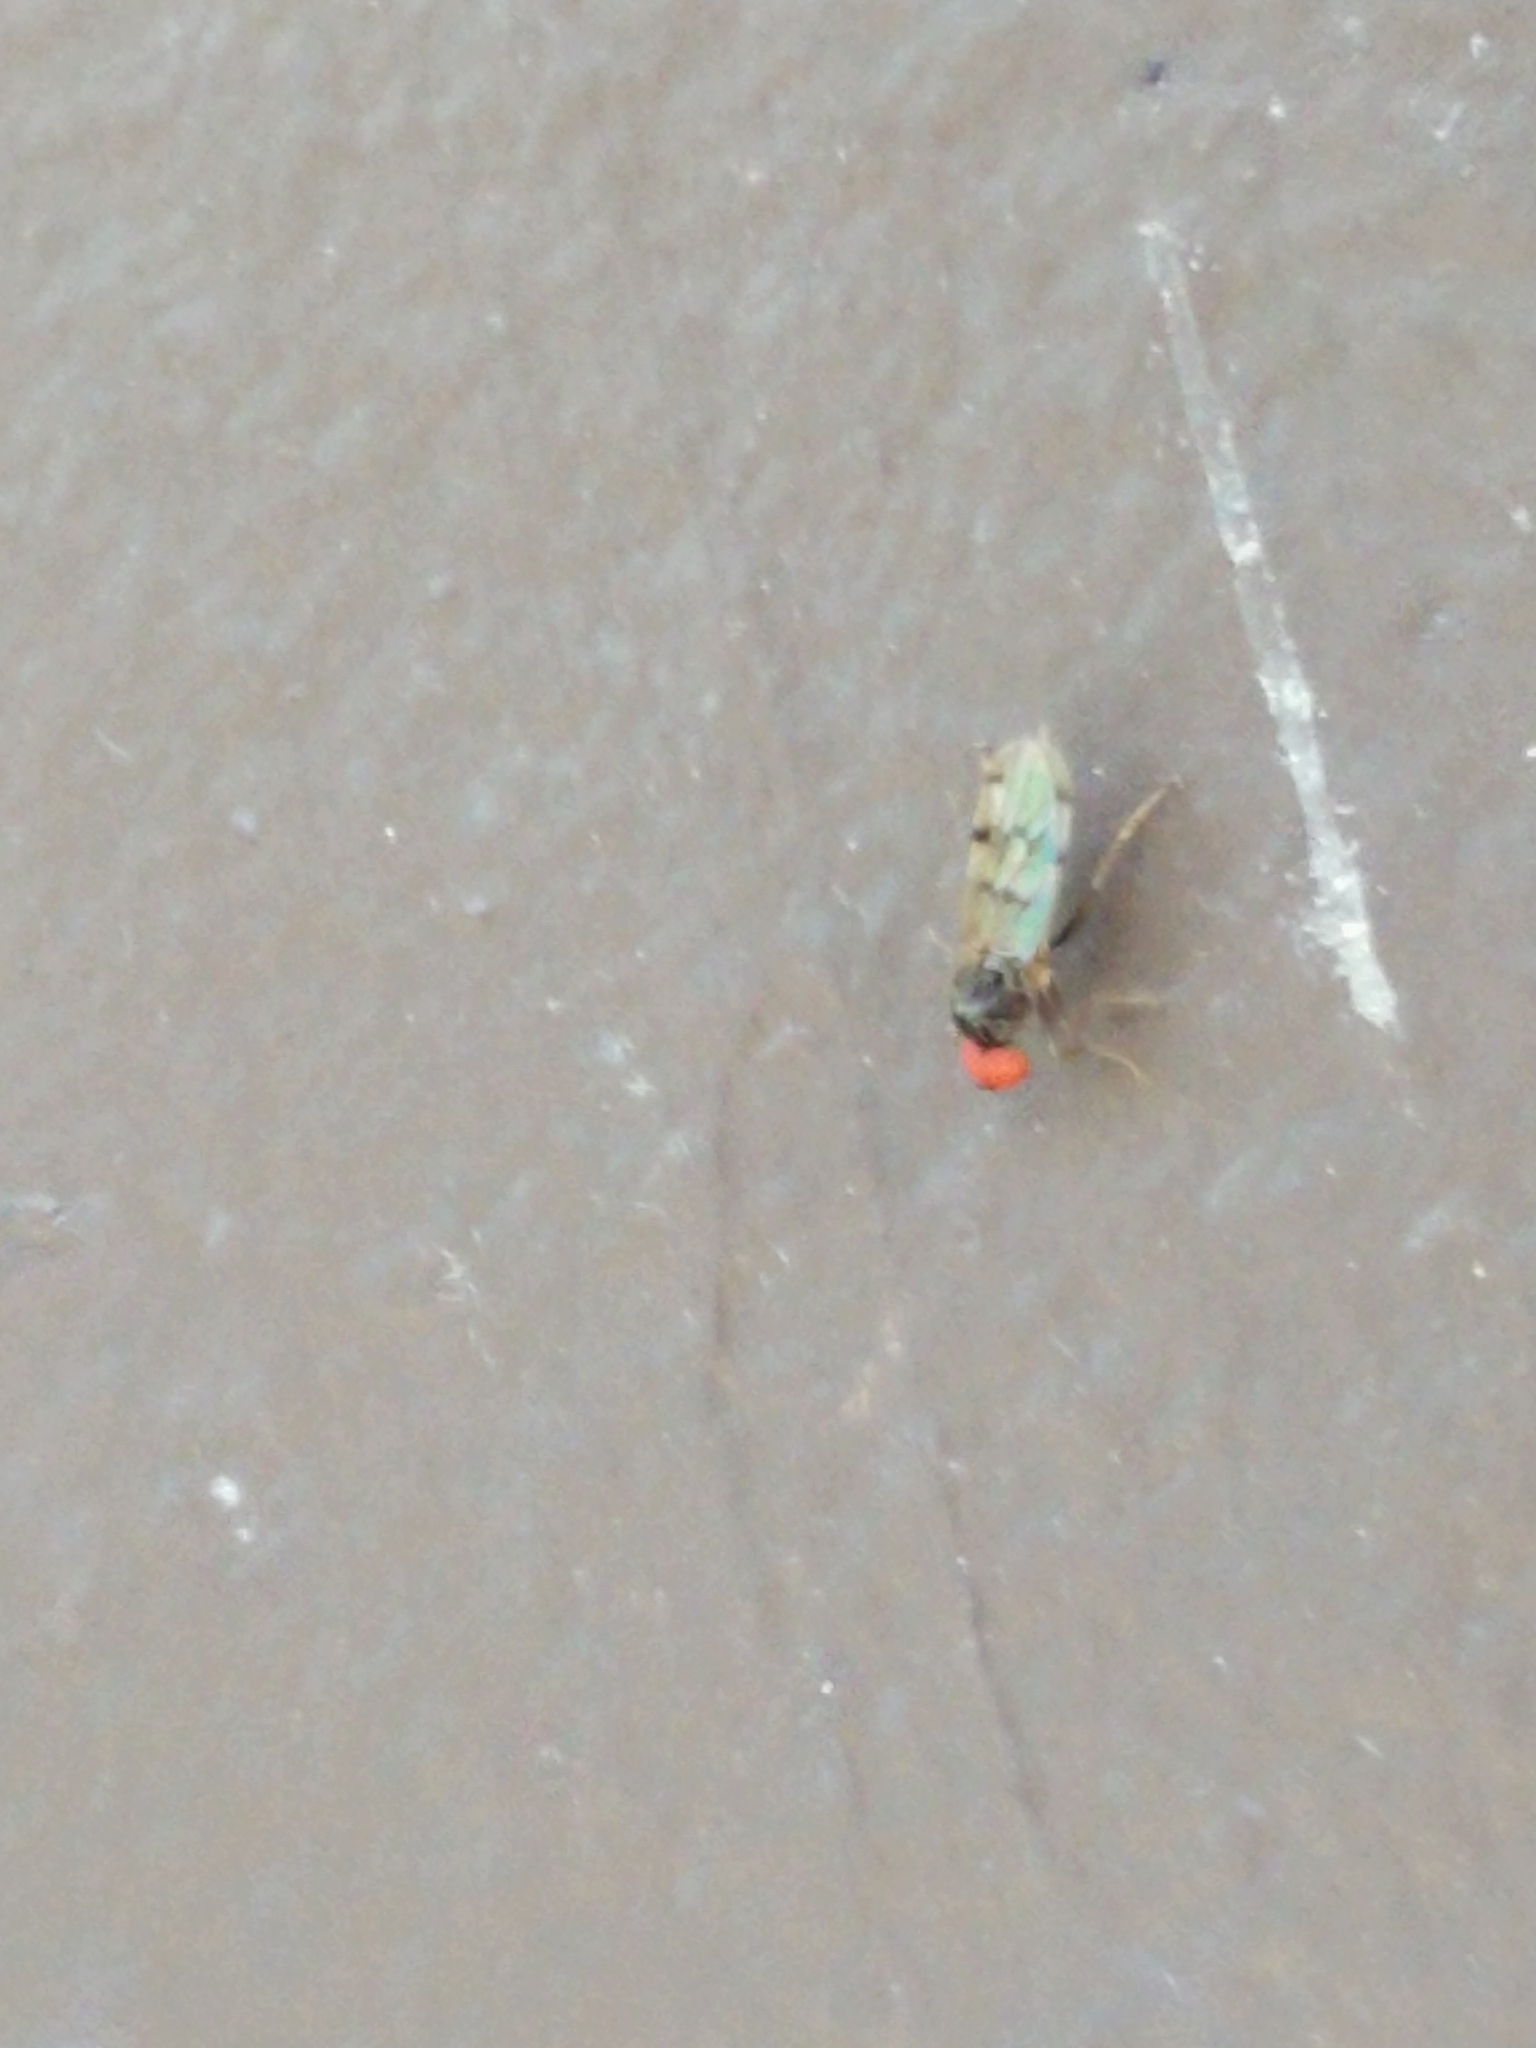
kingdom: Animalia
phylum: Arthropoda
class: Insecta
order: Diptera
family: Hybotidae
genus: Syneches
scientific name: Syneches simplex
